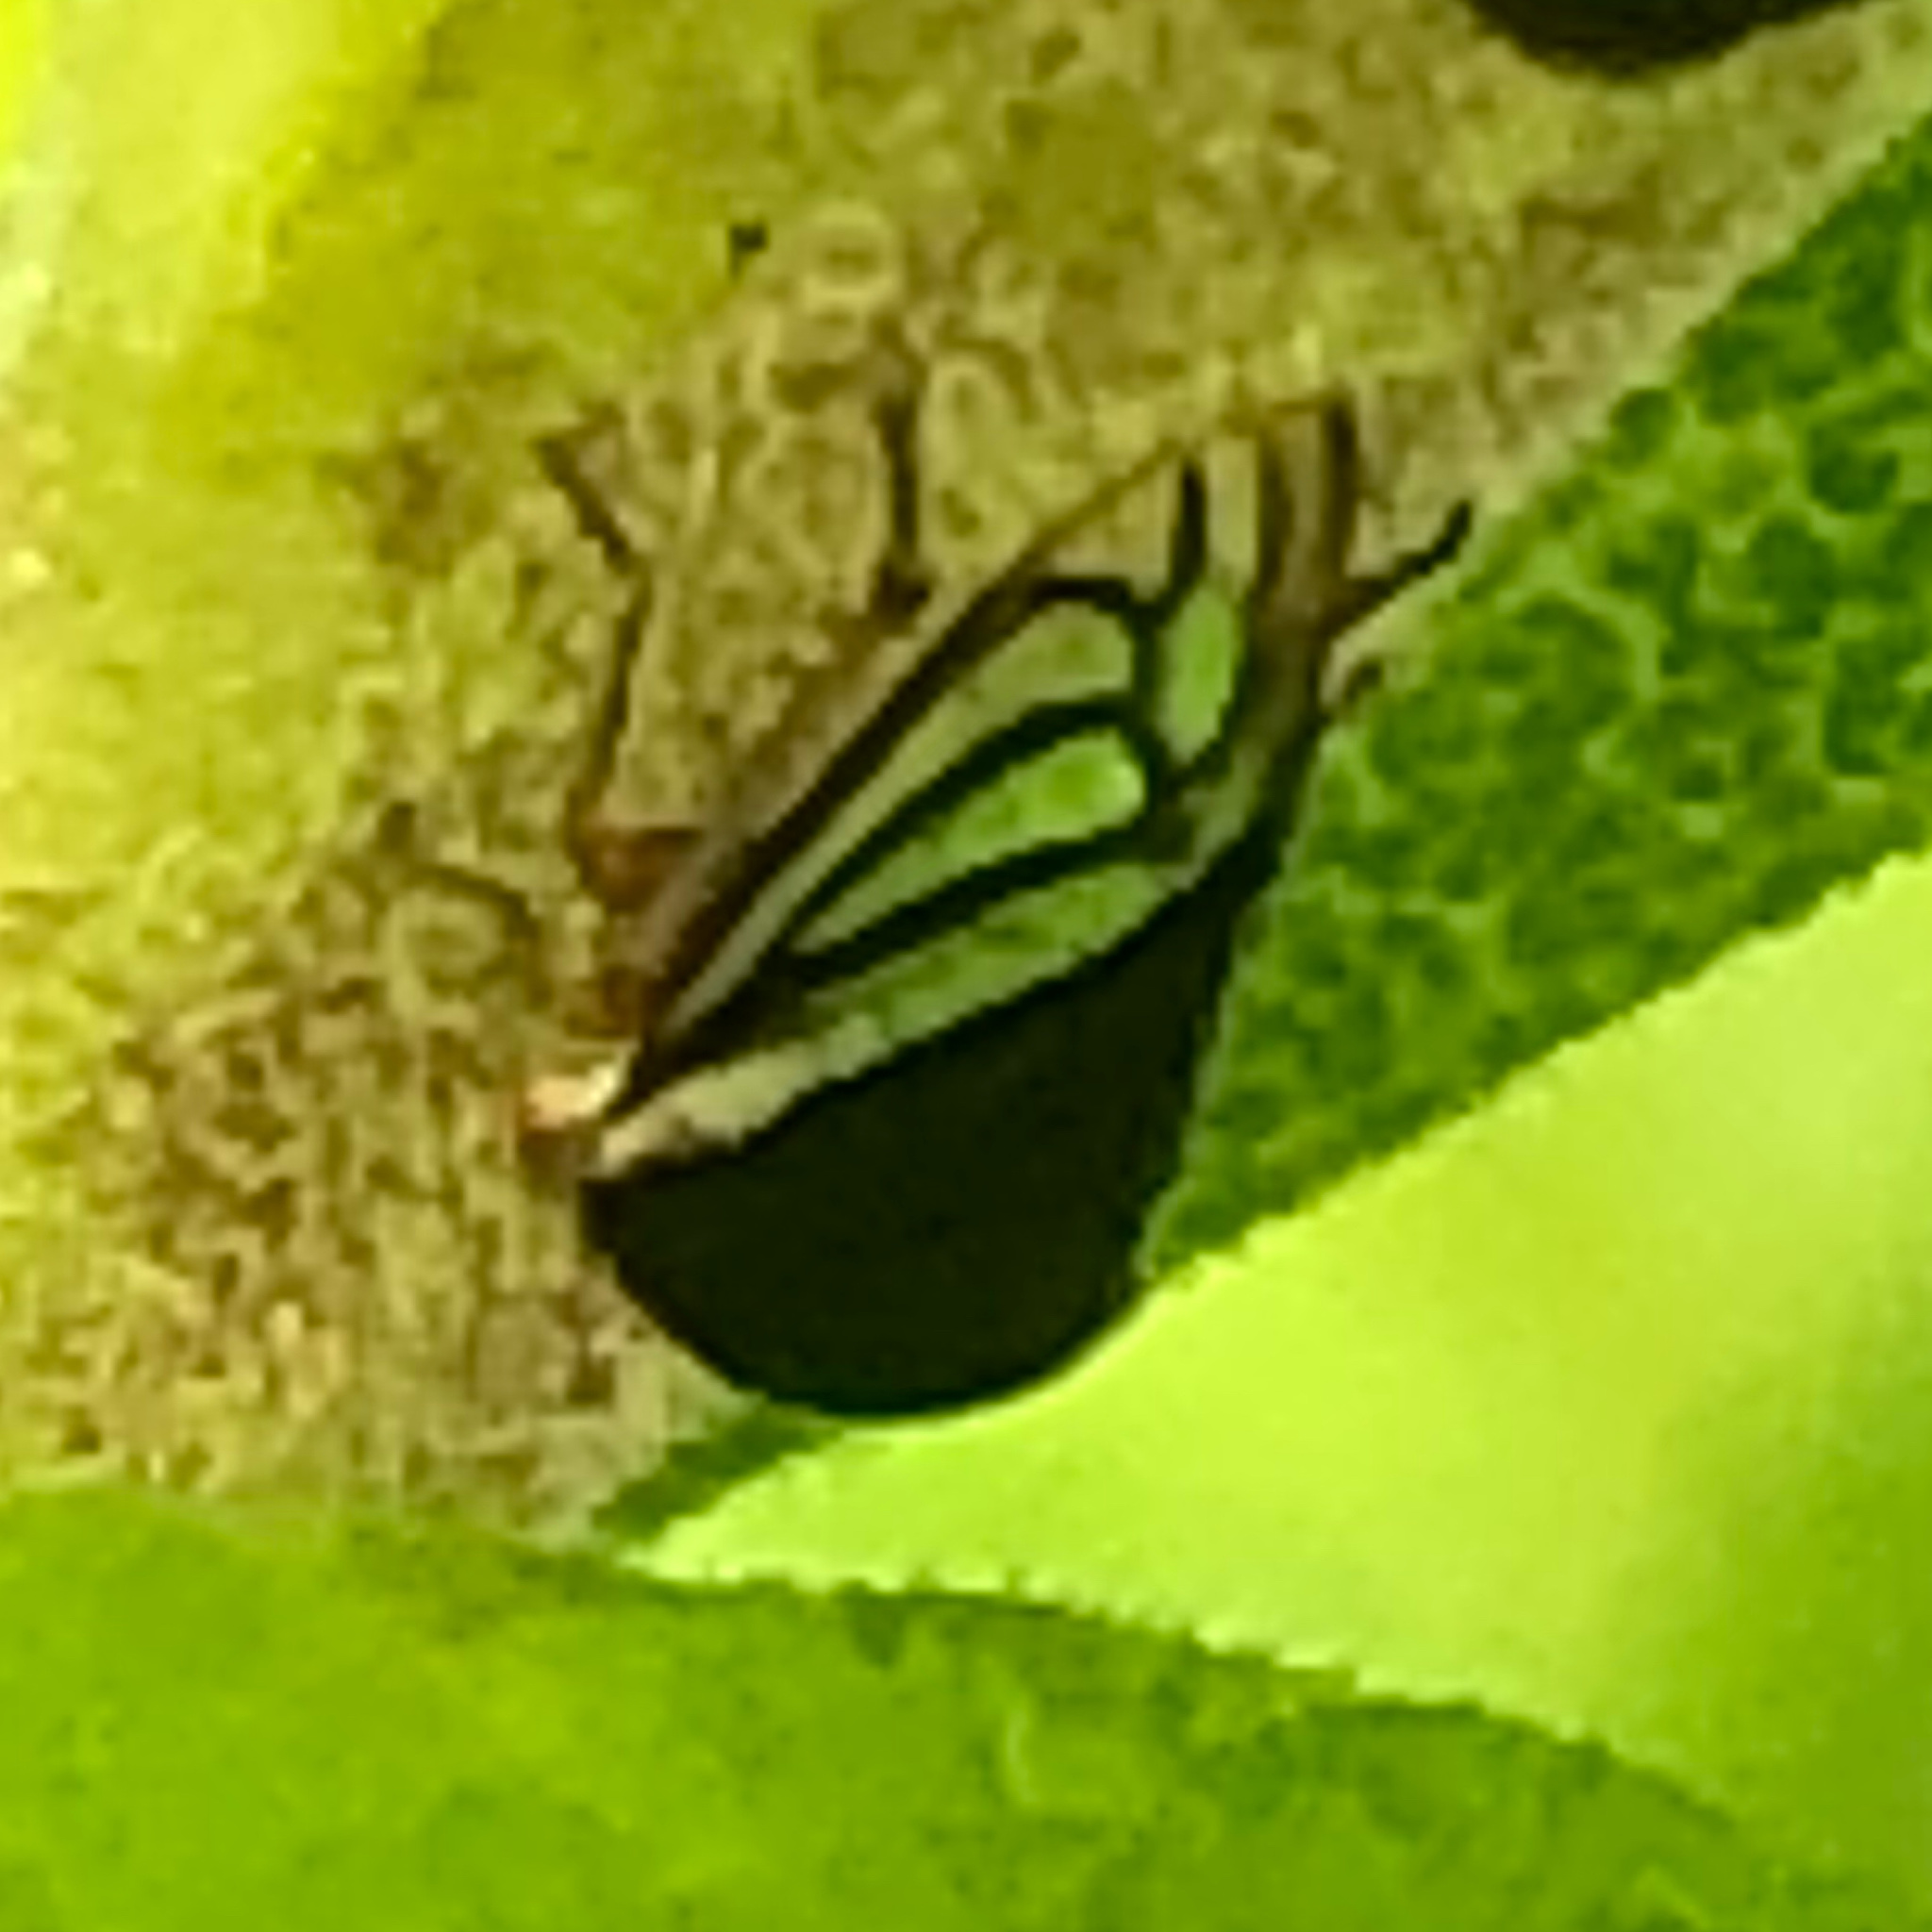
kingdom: Animalia
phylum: Arthropoda
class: Insecta
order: Hemiptera
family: Membracidae
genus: Acutalis
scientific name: Acutalis tartarea
